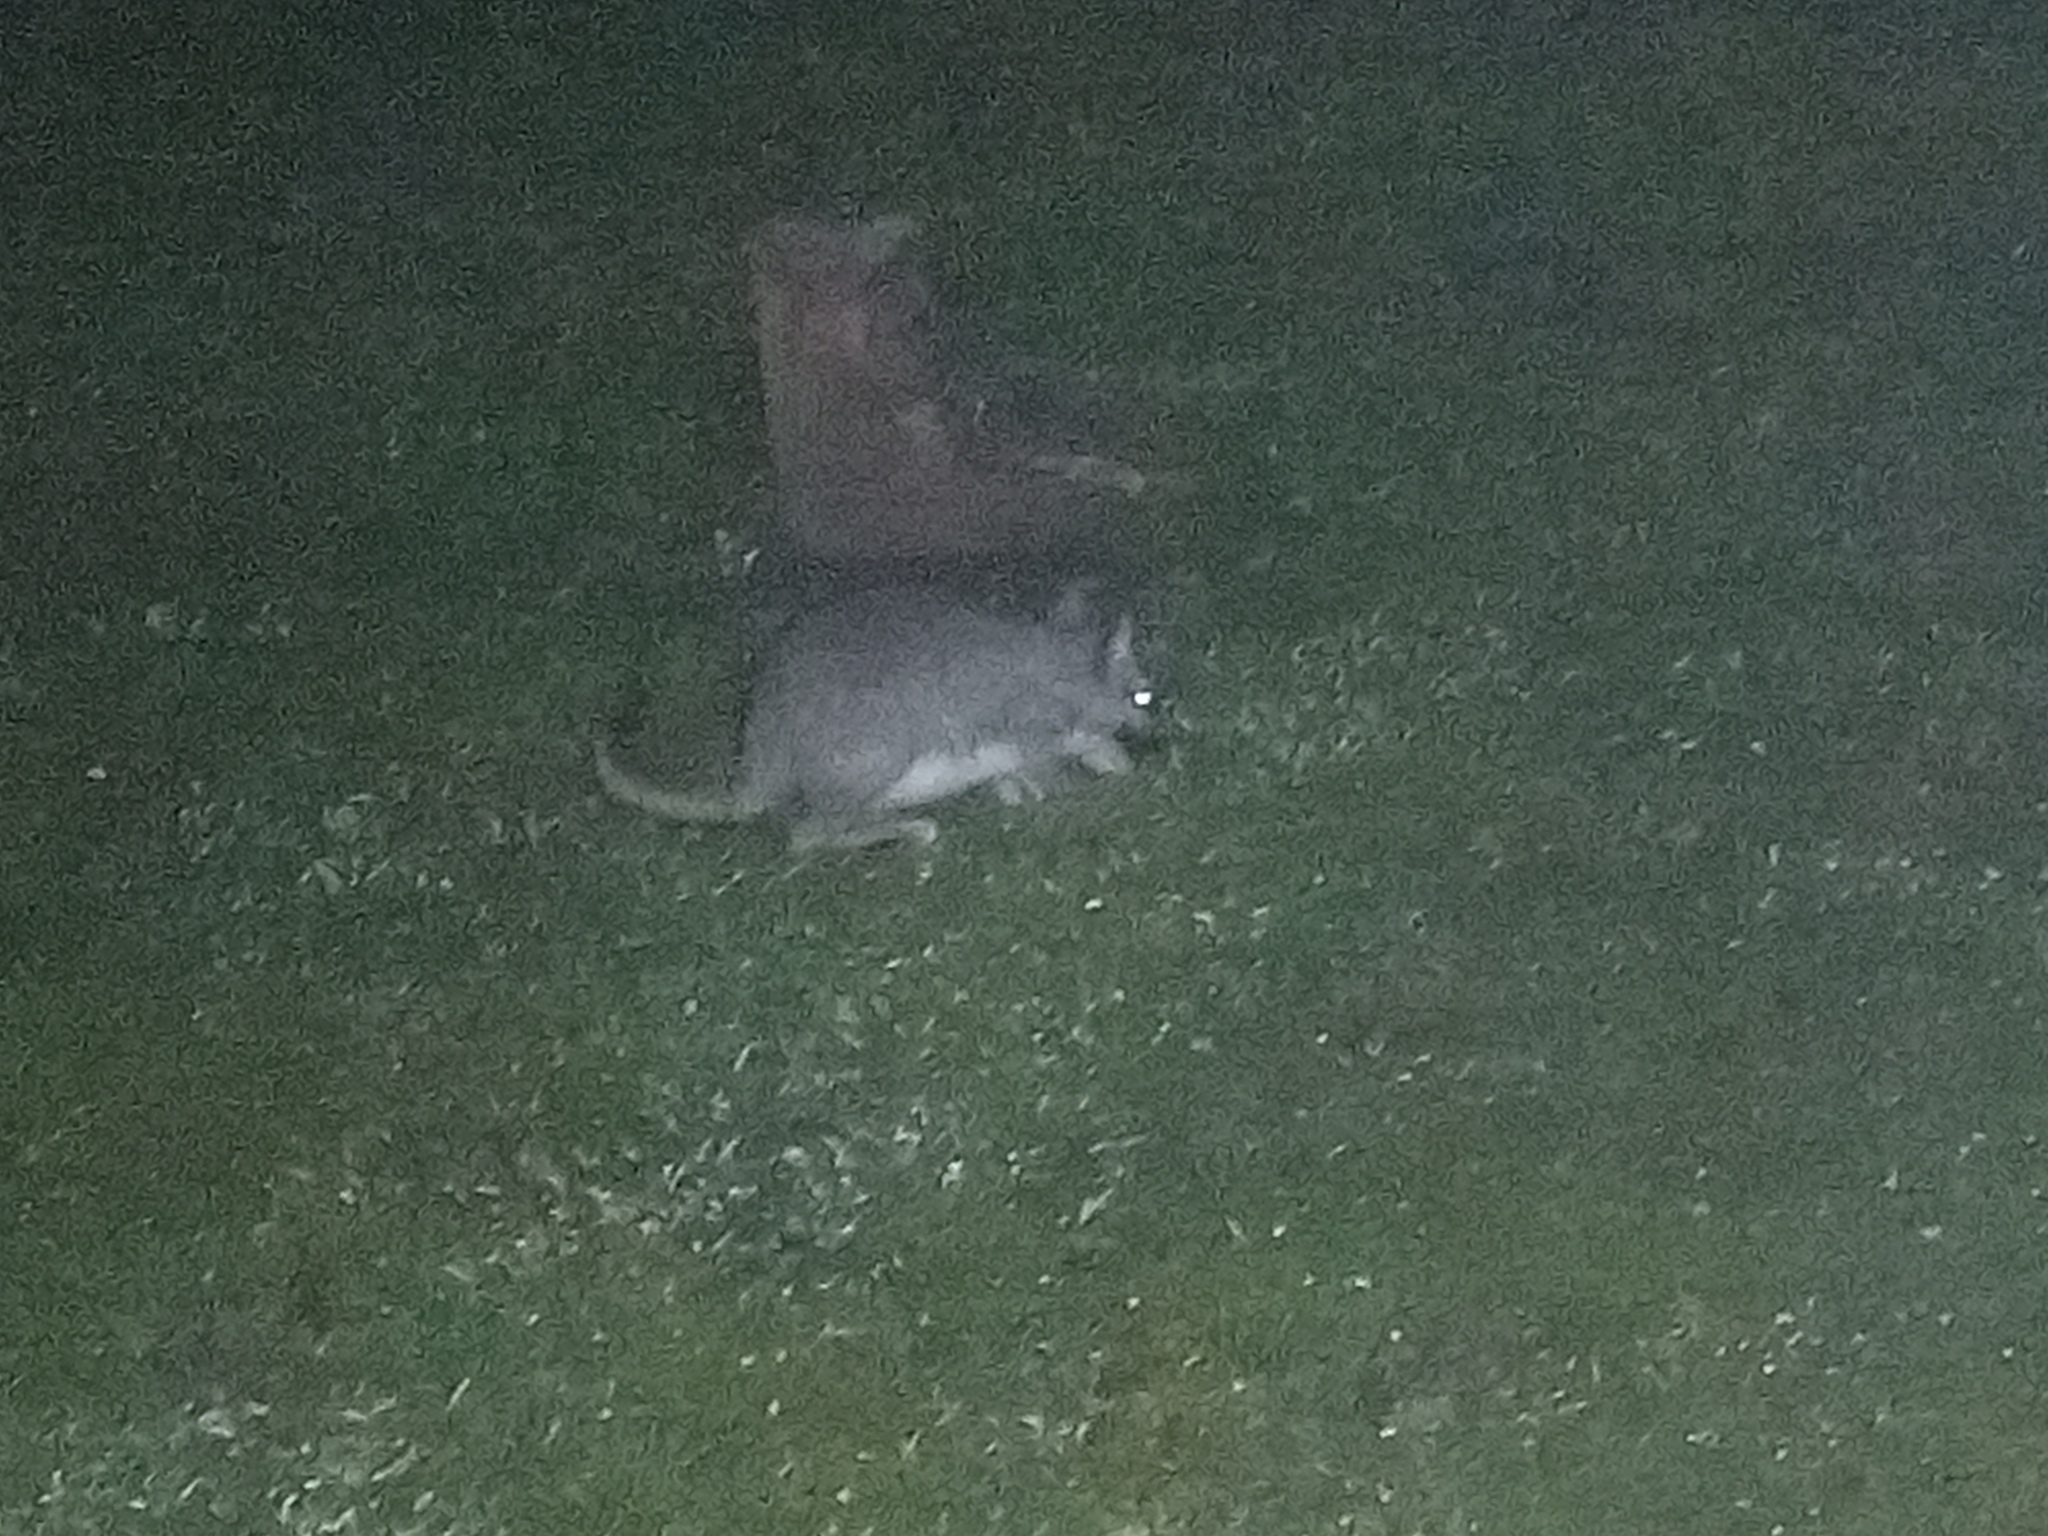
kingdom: Animalia
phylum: Chordata
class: Mammalia
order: Rodentia
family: Chinchillidae
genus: Lagostomus
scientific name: Lagostomus maximus
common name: Plains viscacha
